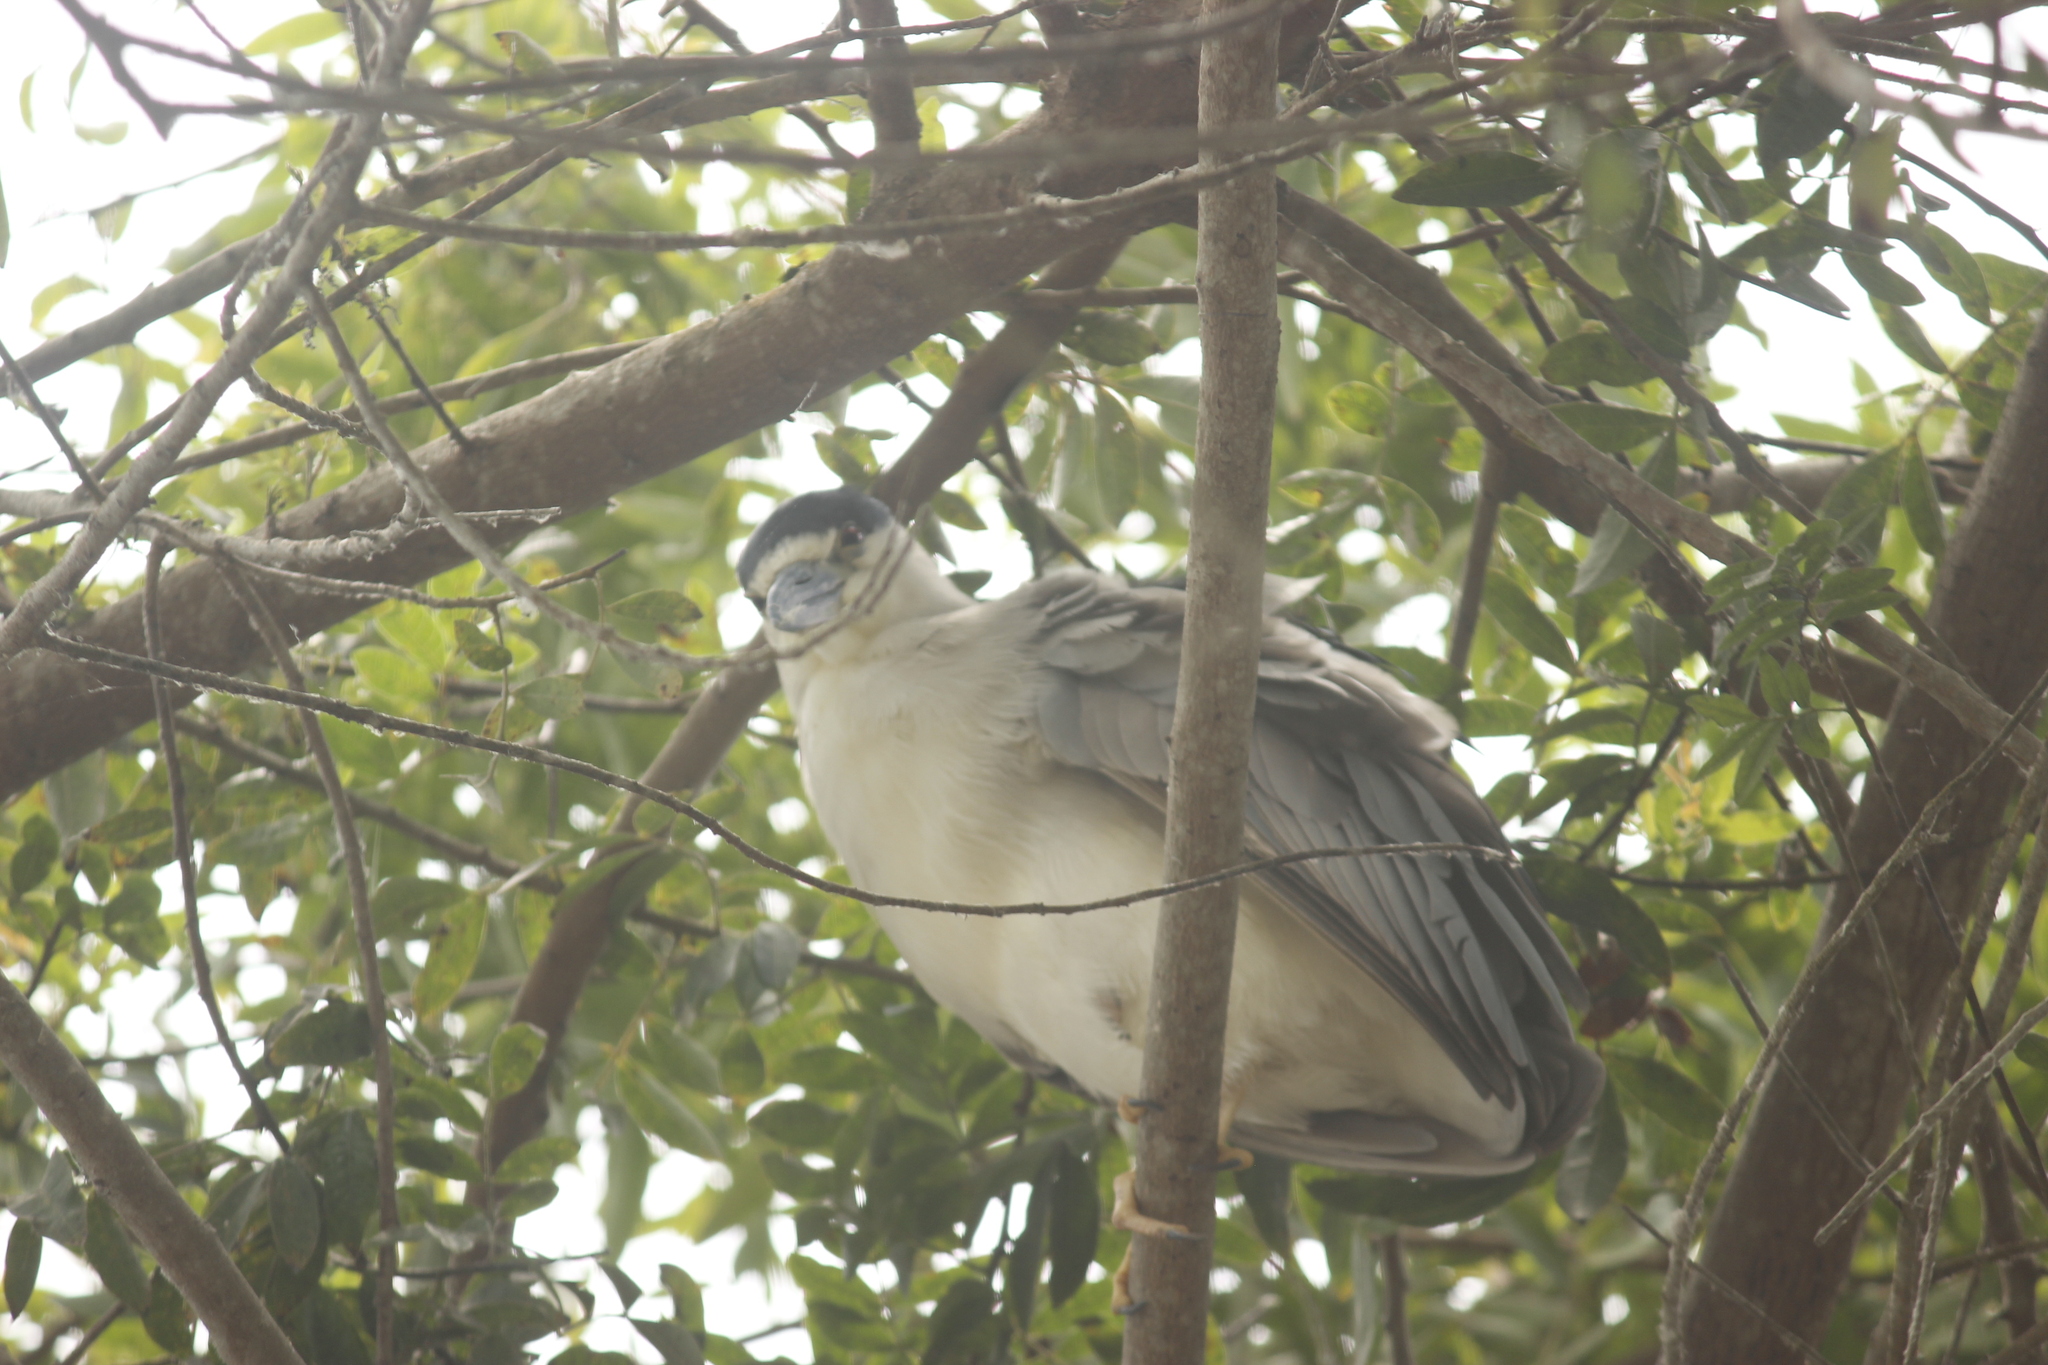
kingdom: Animalia
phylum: Chordata
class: Aves
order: Pelecaniformes
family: Ardeidae
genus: Nycticorax
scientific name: Nycticorax nycticorax
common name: Black-crowned night heron
